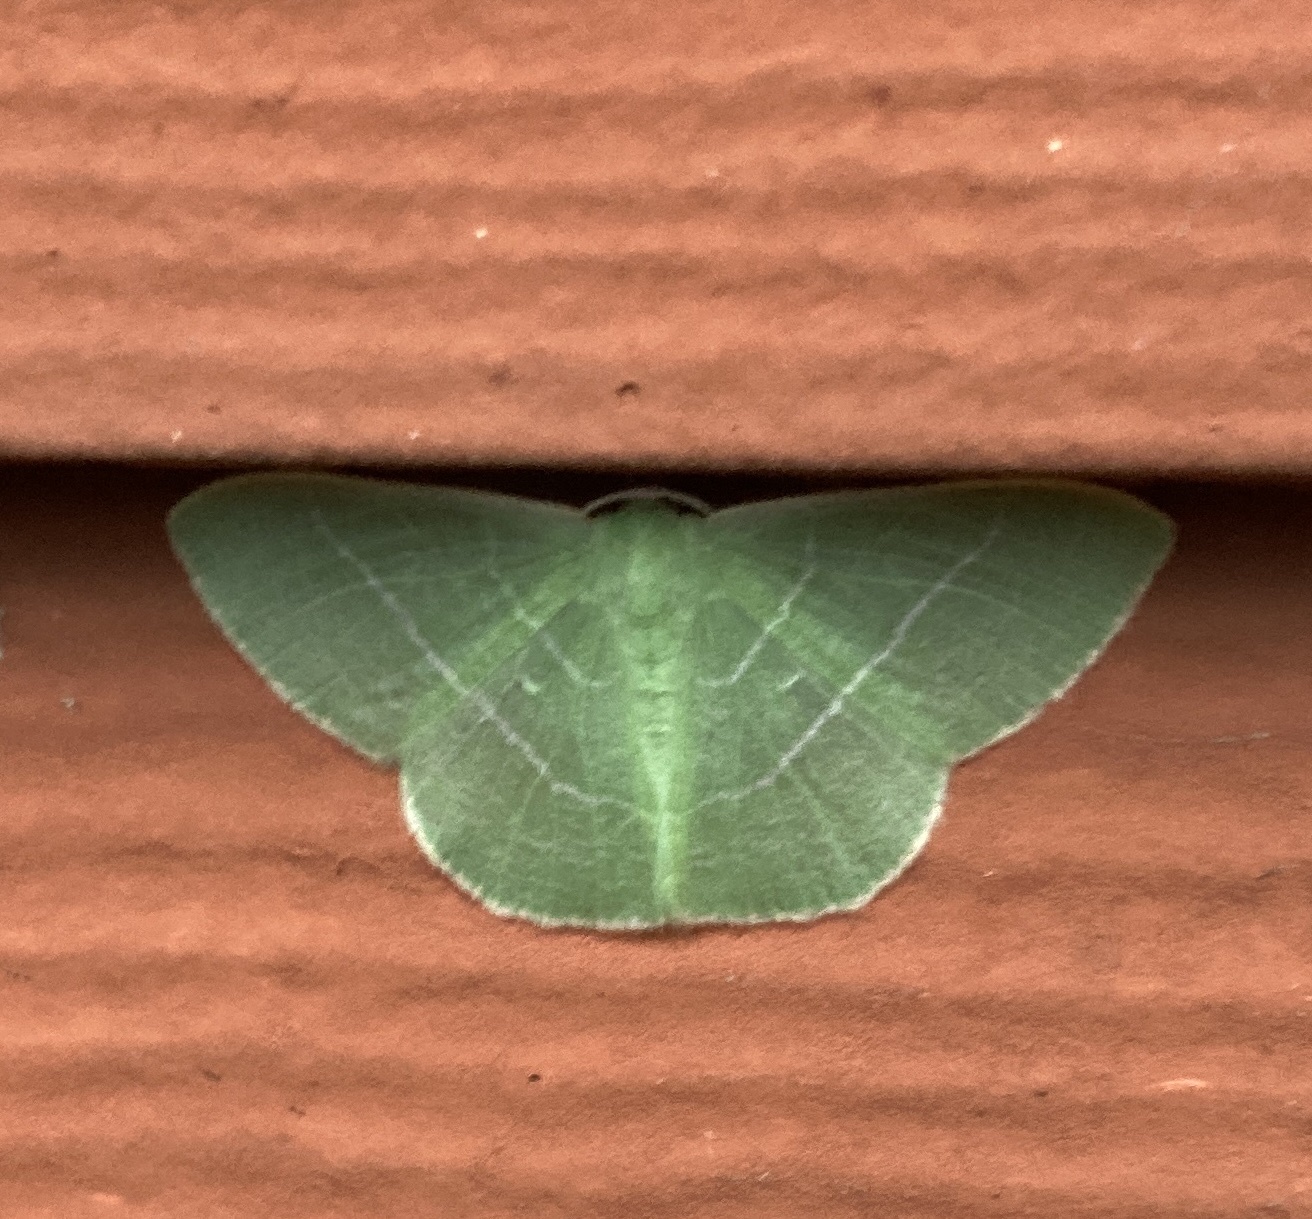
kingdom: Animalia
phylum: Arthropoda
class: Insecta
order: Lepidoptera
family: Geometridae
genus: Nemoria
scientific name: Nemoria leptalea
